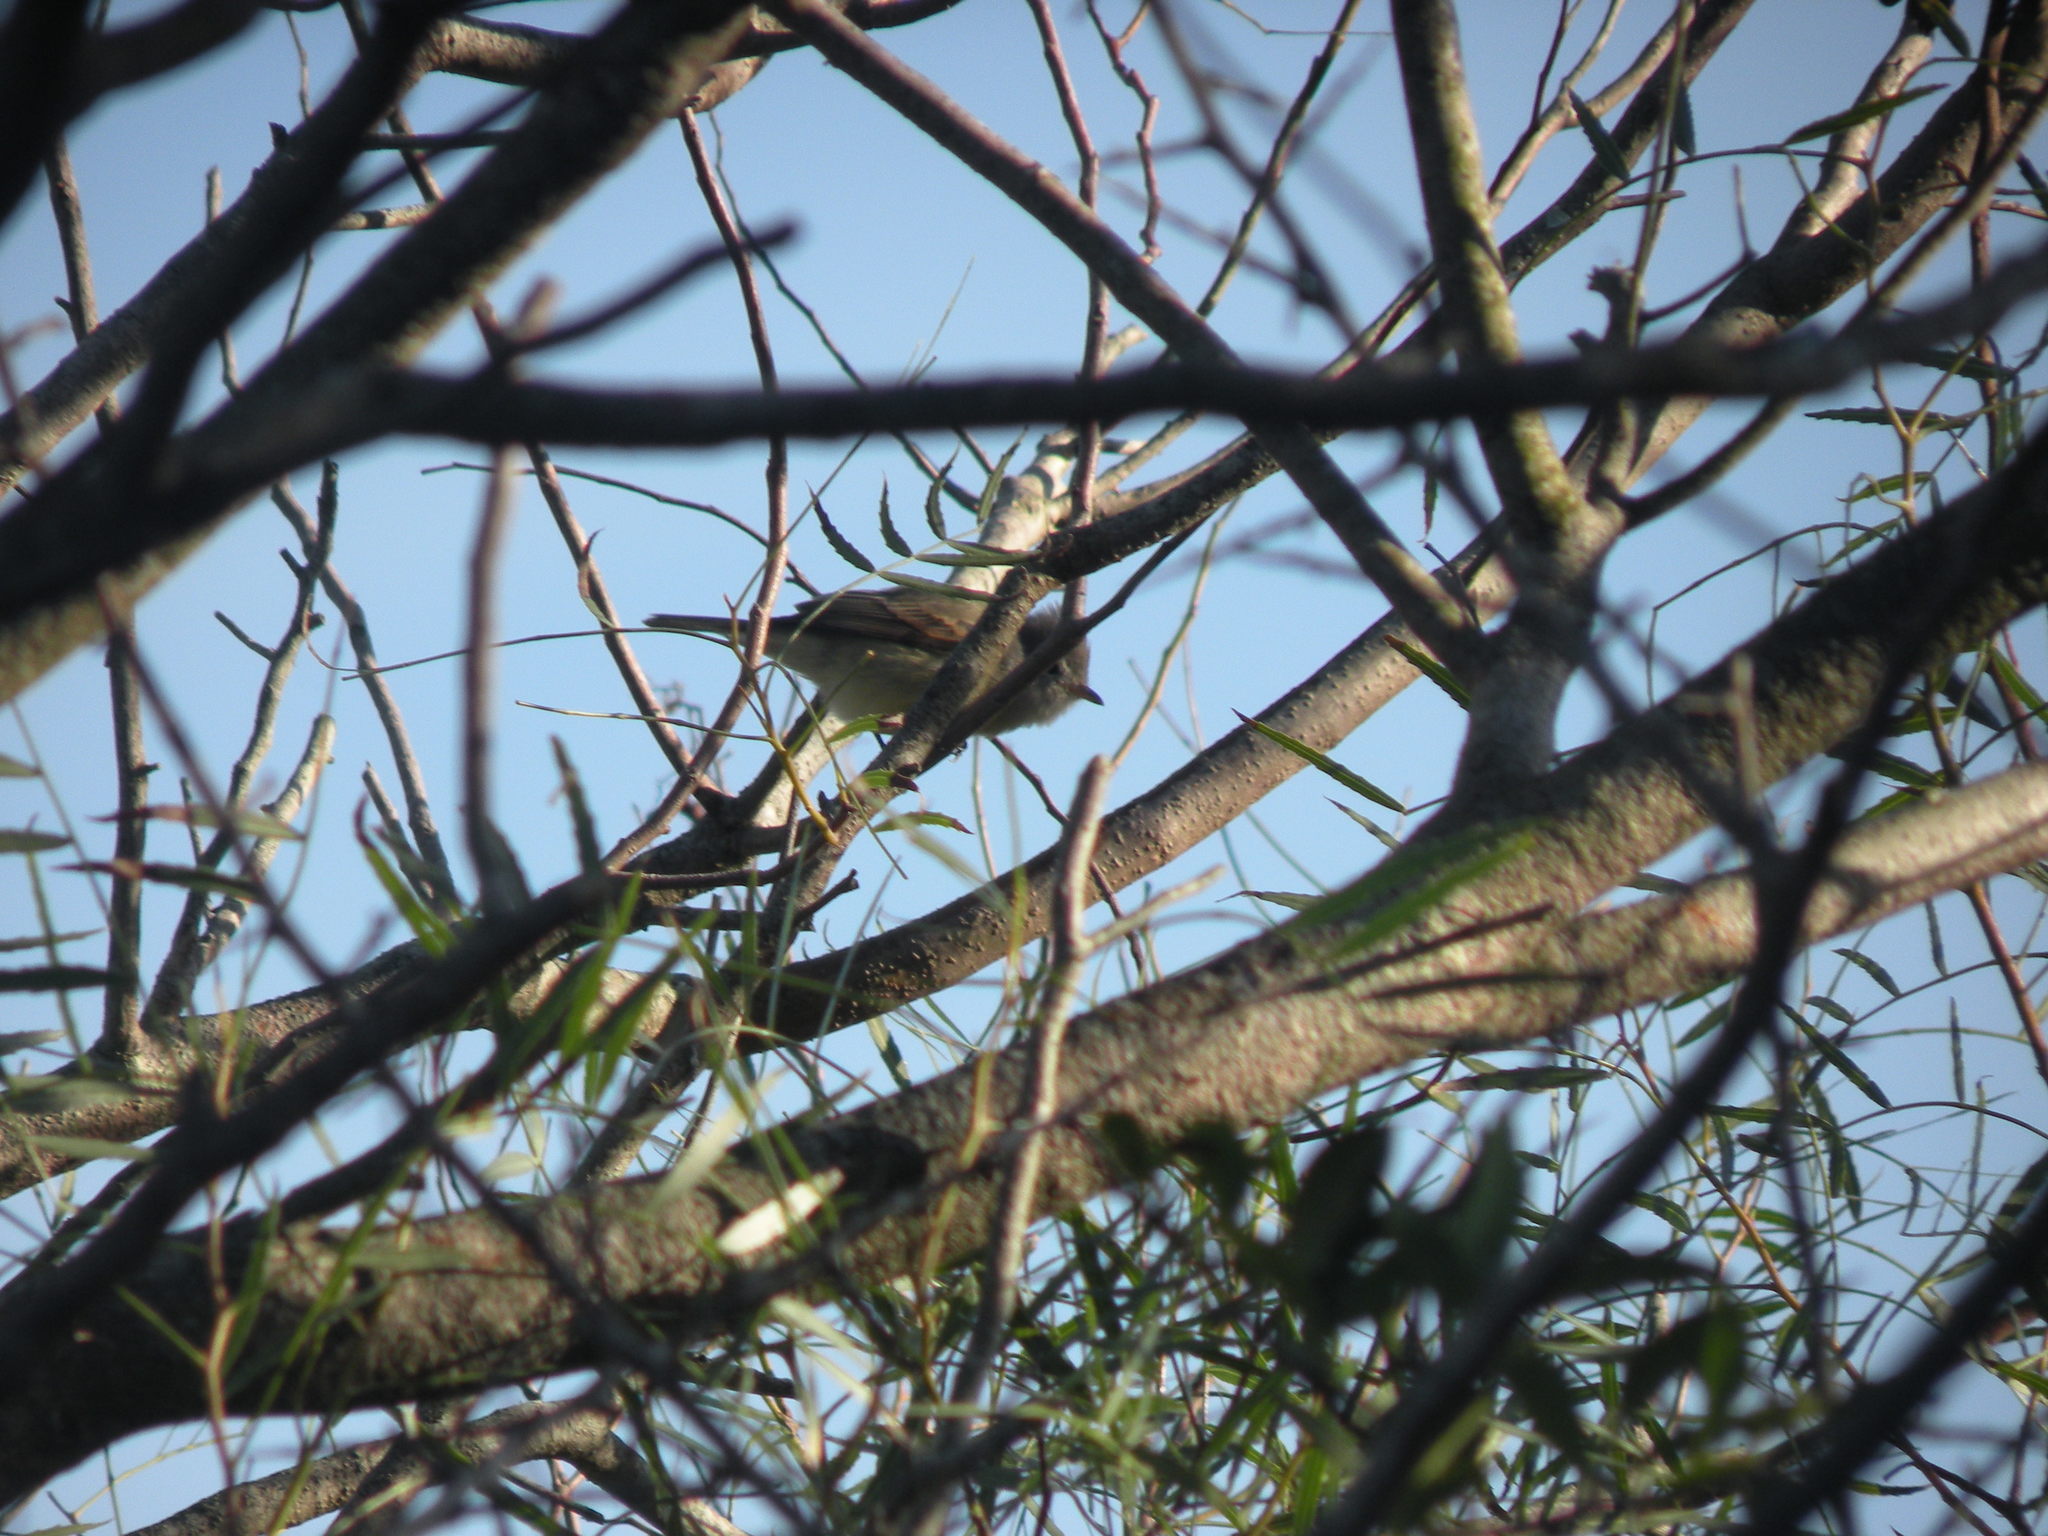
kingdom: Animalia
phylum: Chordata
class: Aves
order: Passeriformes
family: Tyrannidae
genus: Camptostoma
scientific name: Camptostoma obsoletum
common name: Southern beardless-tyrannulet
